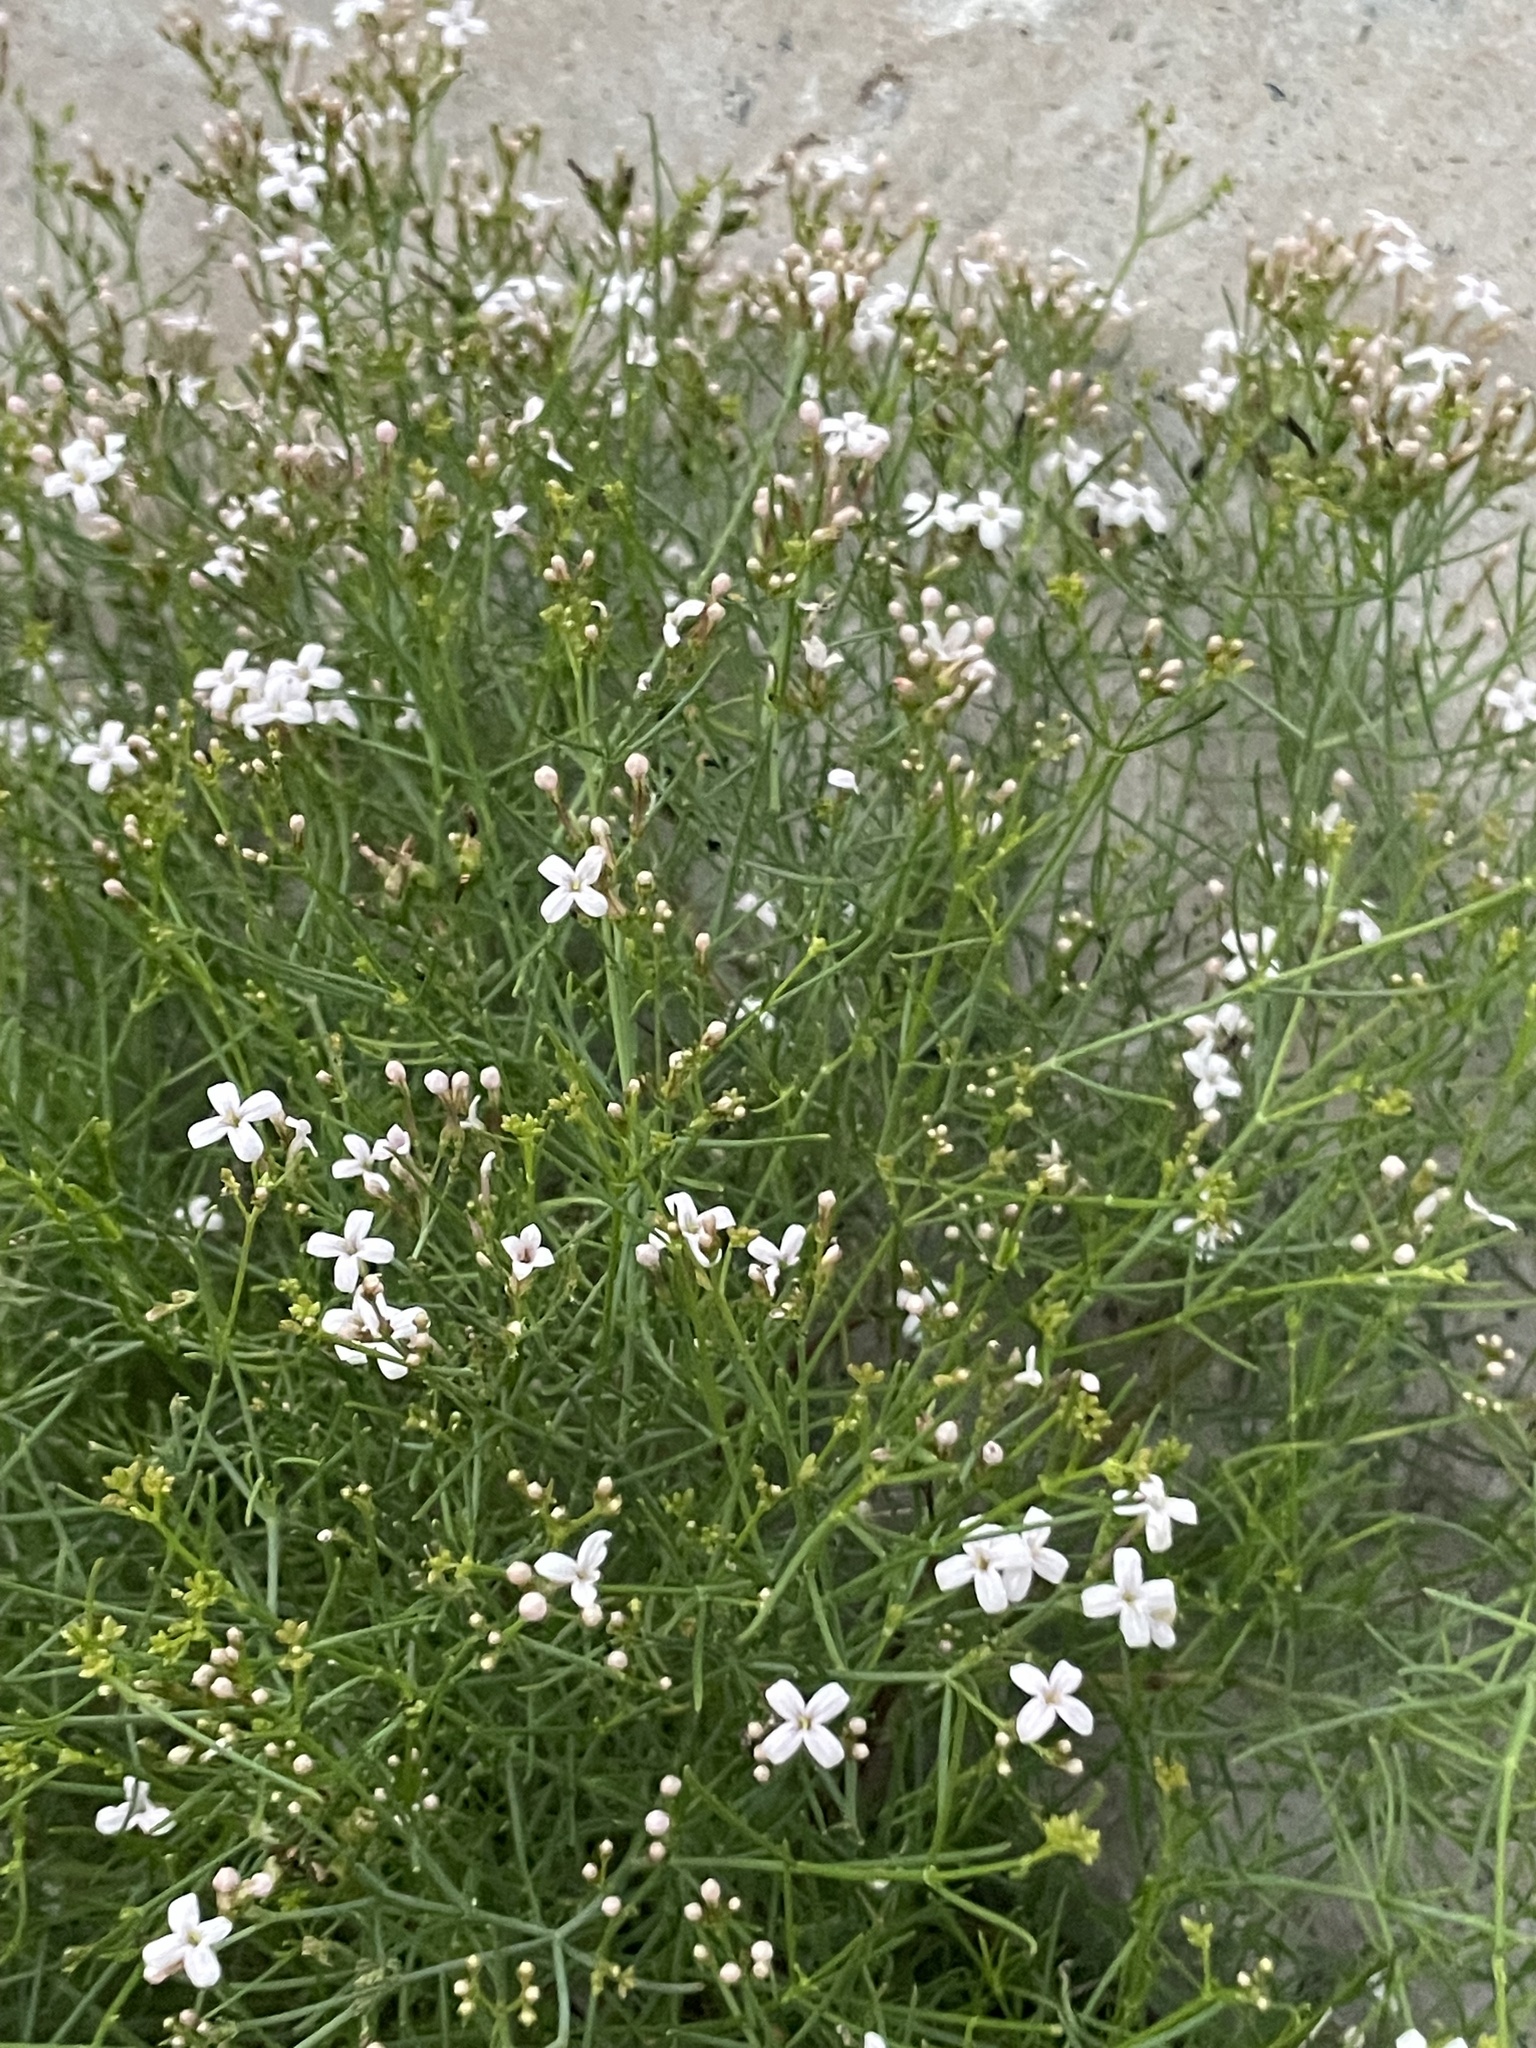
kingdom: Plantae
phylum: Tracheophyta
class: Magnoliopsida
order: Gentianales
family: Rubiaceae
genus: Stenotis
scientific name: Stenotis brevipes
